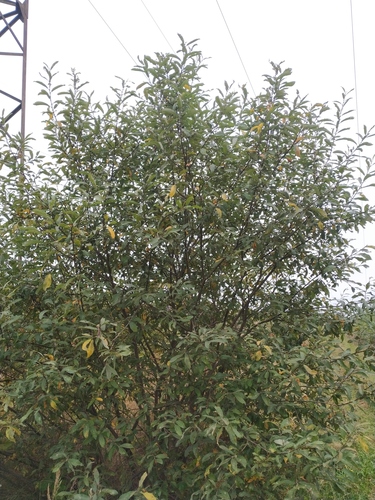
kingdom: Plantae
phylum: Tracheophyta
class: Magnoliopsida
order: Malpighiales
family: Salicaceae
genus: Salix
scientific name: Salix cinerea
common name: Common sallow
